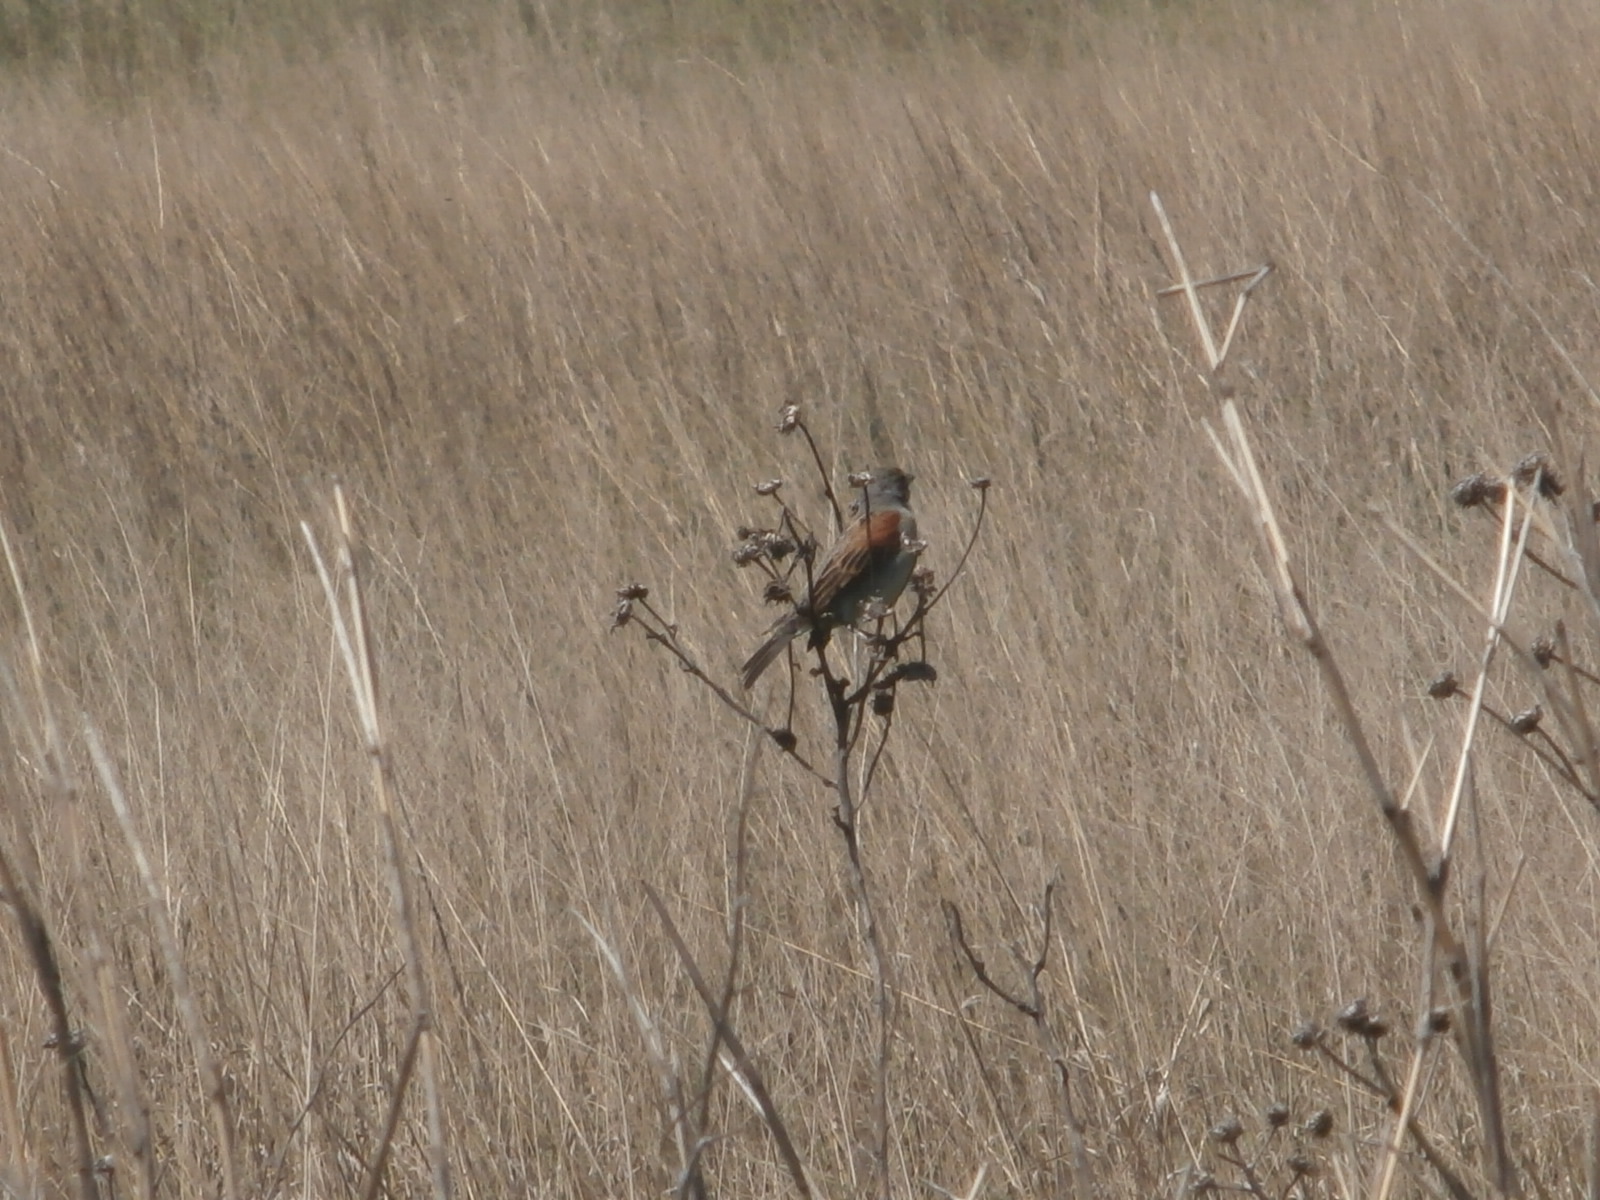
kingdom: Animalia
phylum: Chordata
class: Aves
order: Passeriformes
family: Cardinalidae
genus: Spiza
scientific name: Spiza americana
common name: Dickcissel
